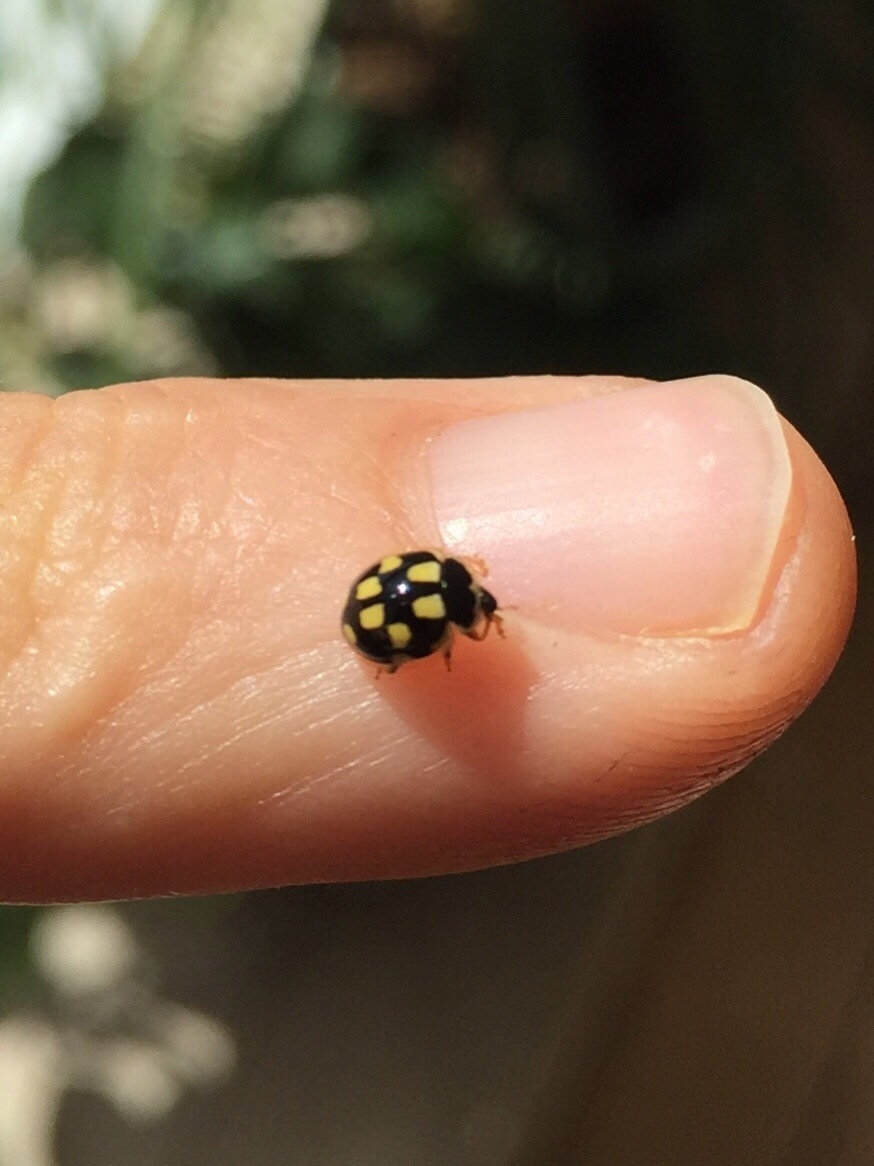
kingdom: Animalia
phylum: Arthropoda
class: Insecta
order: Coleoptera
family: Coccinellidae
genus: Propylaea
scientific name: Propylaea quatuordecimpunctata
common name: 14-spotted ladybird beetle
